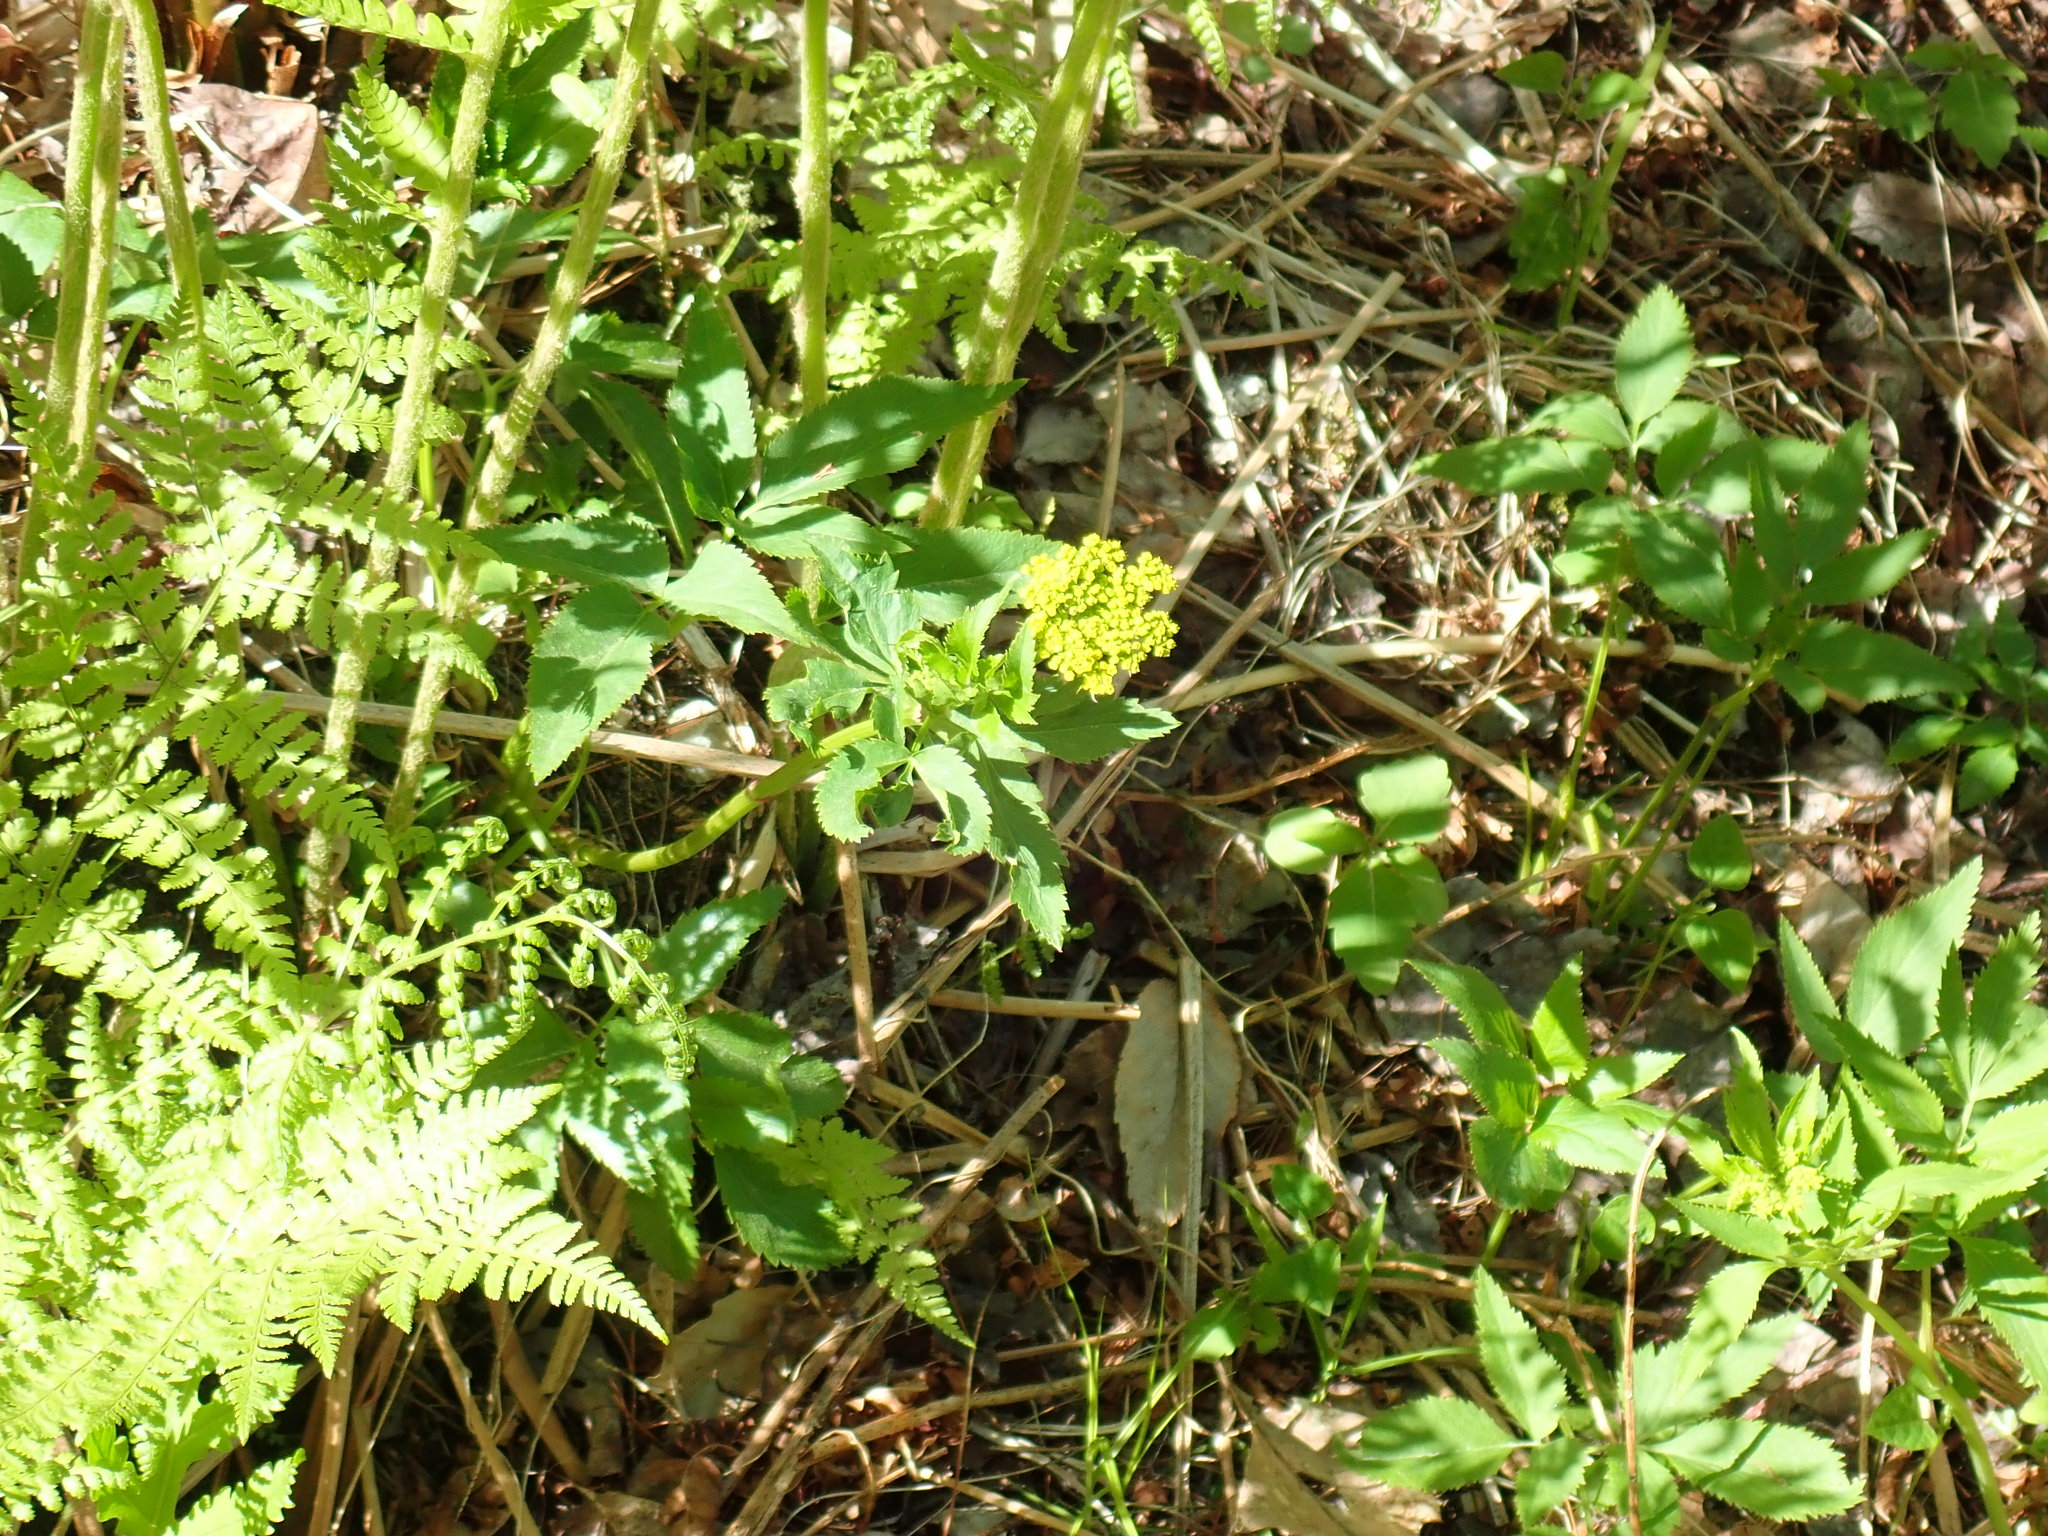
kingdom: Plantae
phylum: Tracheophyta
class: Magnoliopsida
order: Apiales
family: Apiaceae
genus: Zizia
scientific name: Zizia aurea
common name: Golden alexanders
